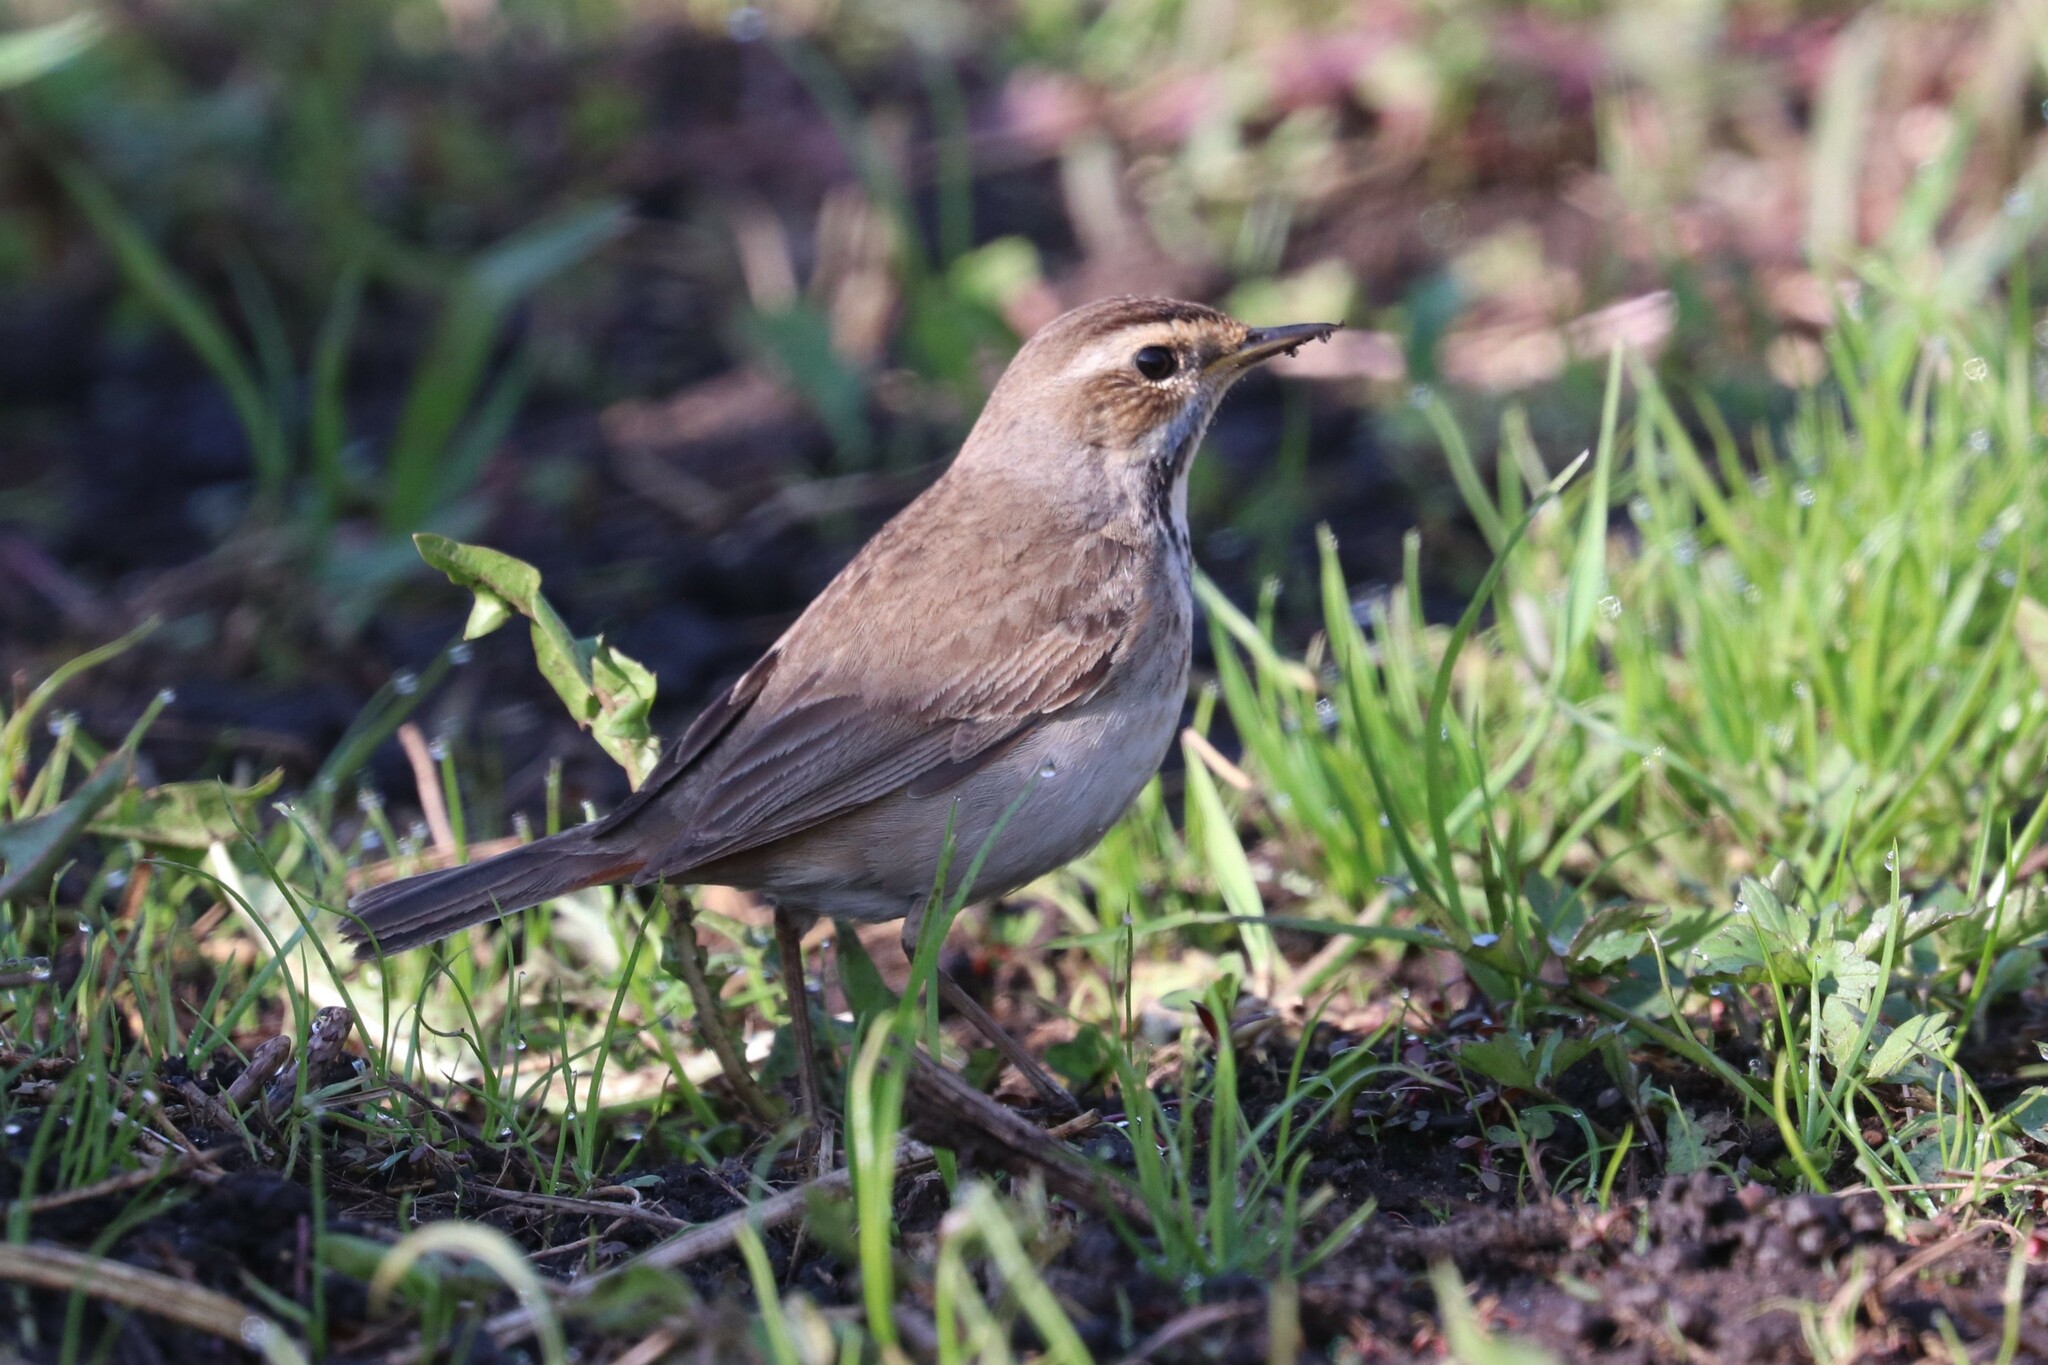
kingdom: Animalia
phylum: Chordata
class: Aves
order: Passeriformes
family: Muscicapidae
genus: Luscinia
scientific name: Luscinia svecica
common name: Bluethroat
